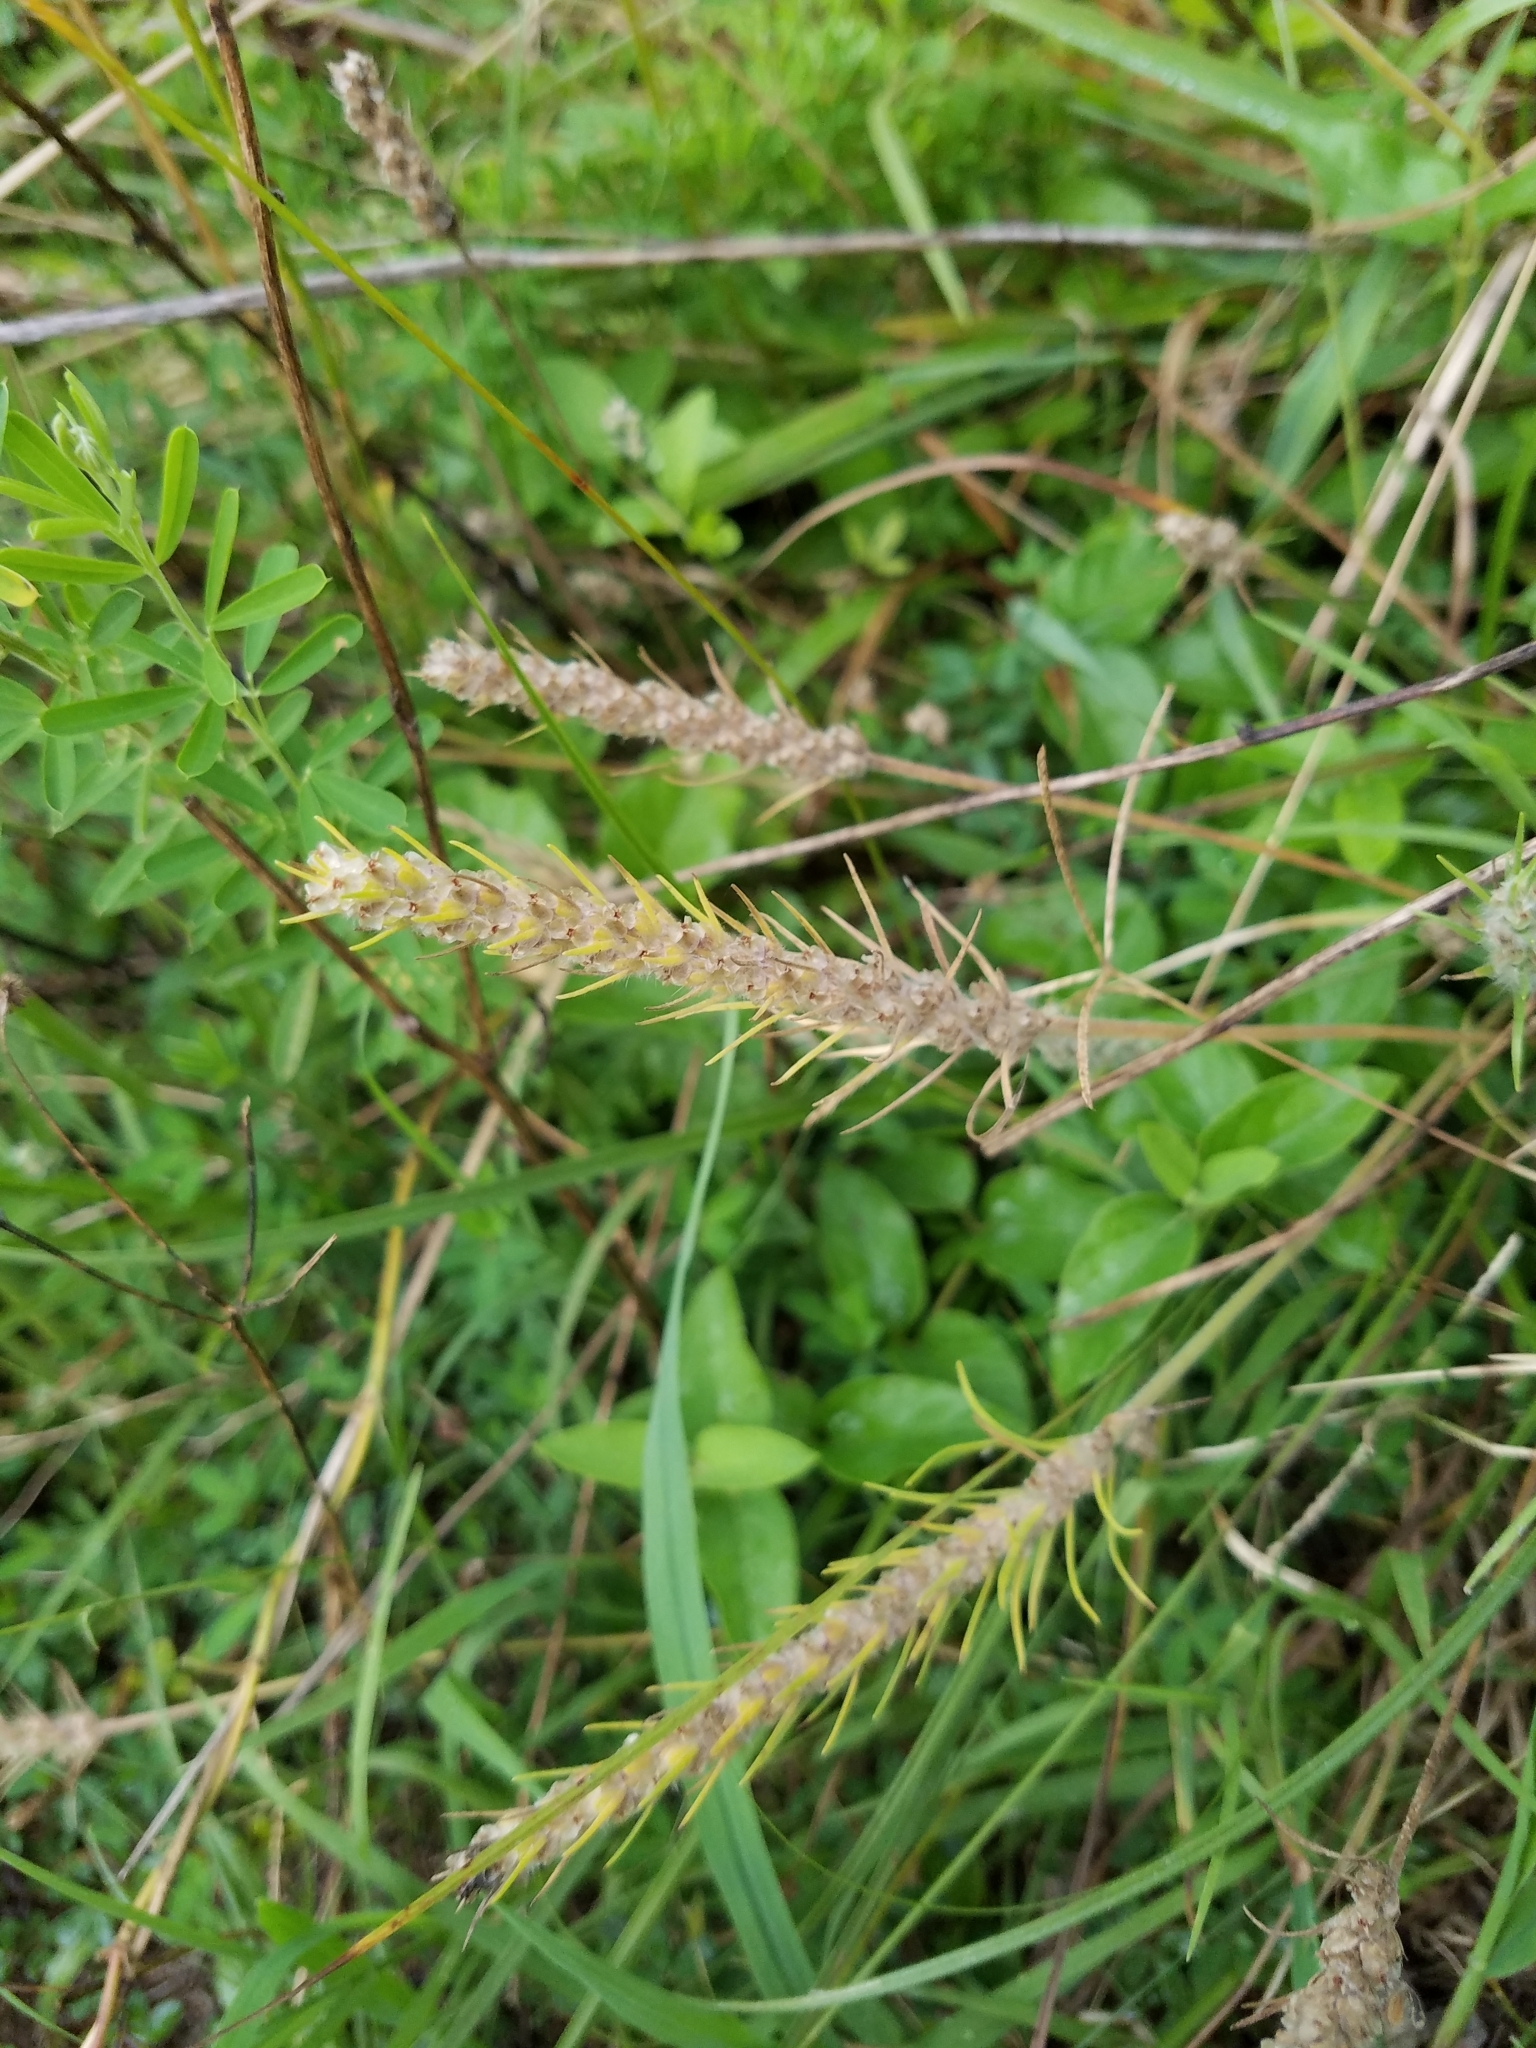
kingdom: Plantae
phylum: Tracheophyta
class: Magnoliopsida
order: Lamiales
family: Plantaginaceae
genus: Plantago
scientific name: Plantago aristata
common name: Bracted plantain
